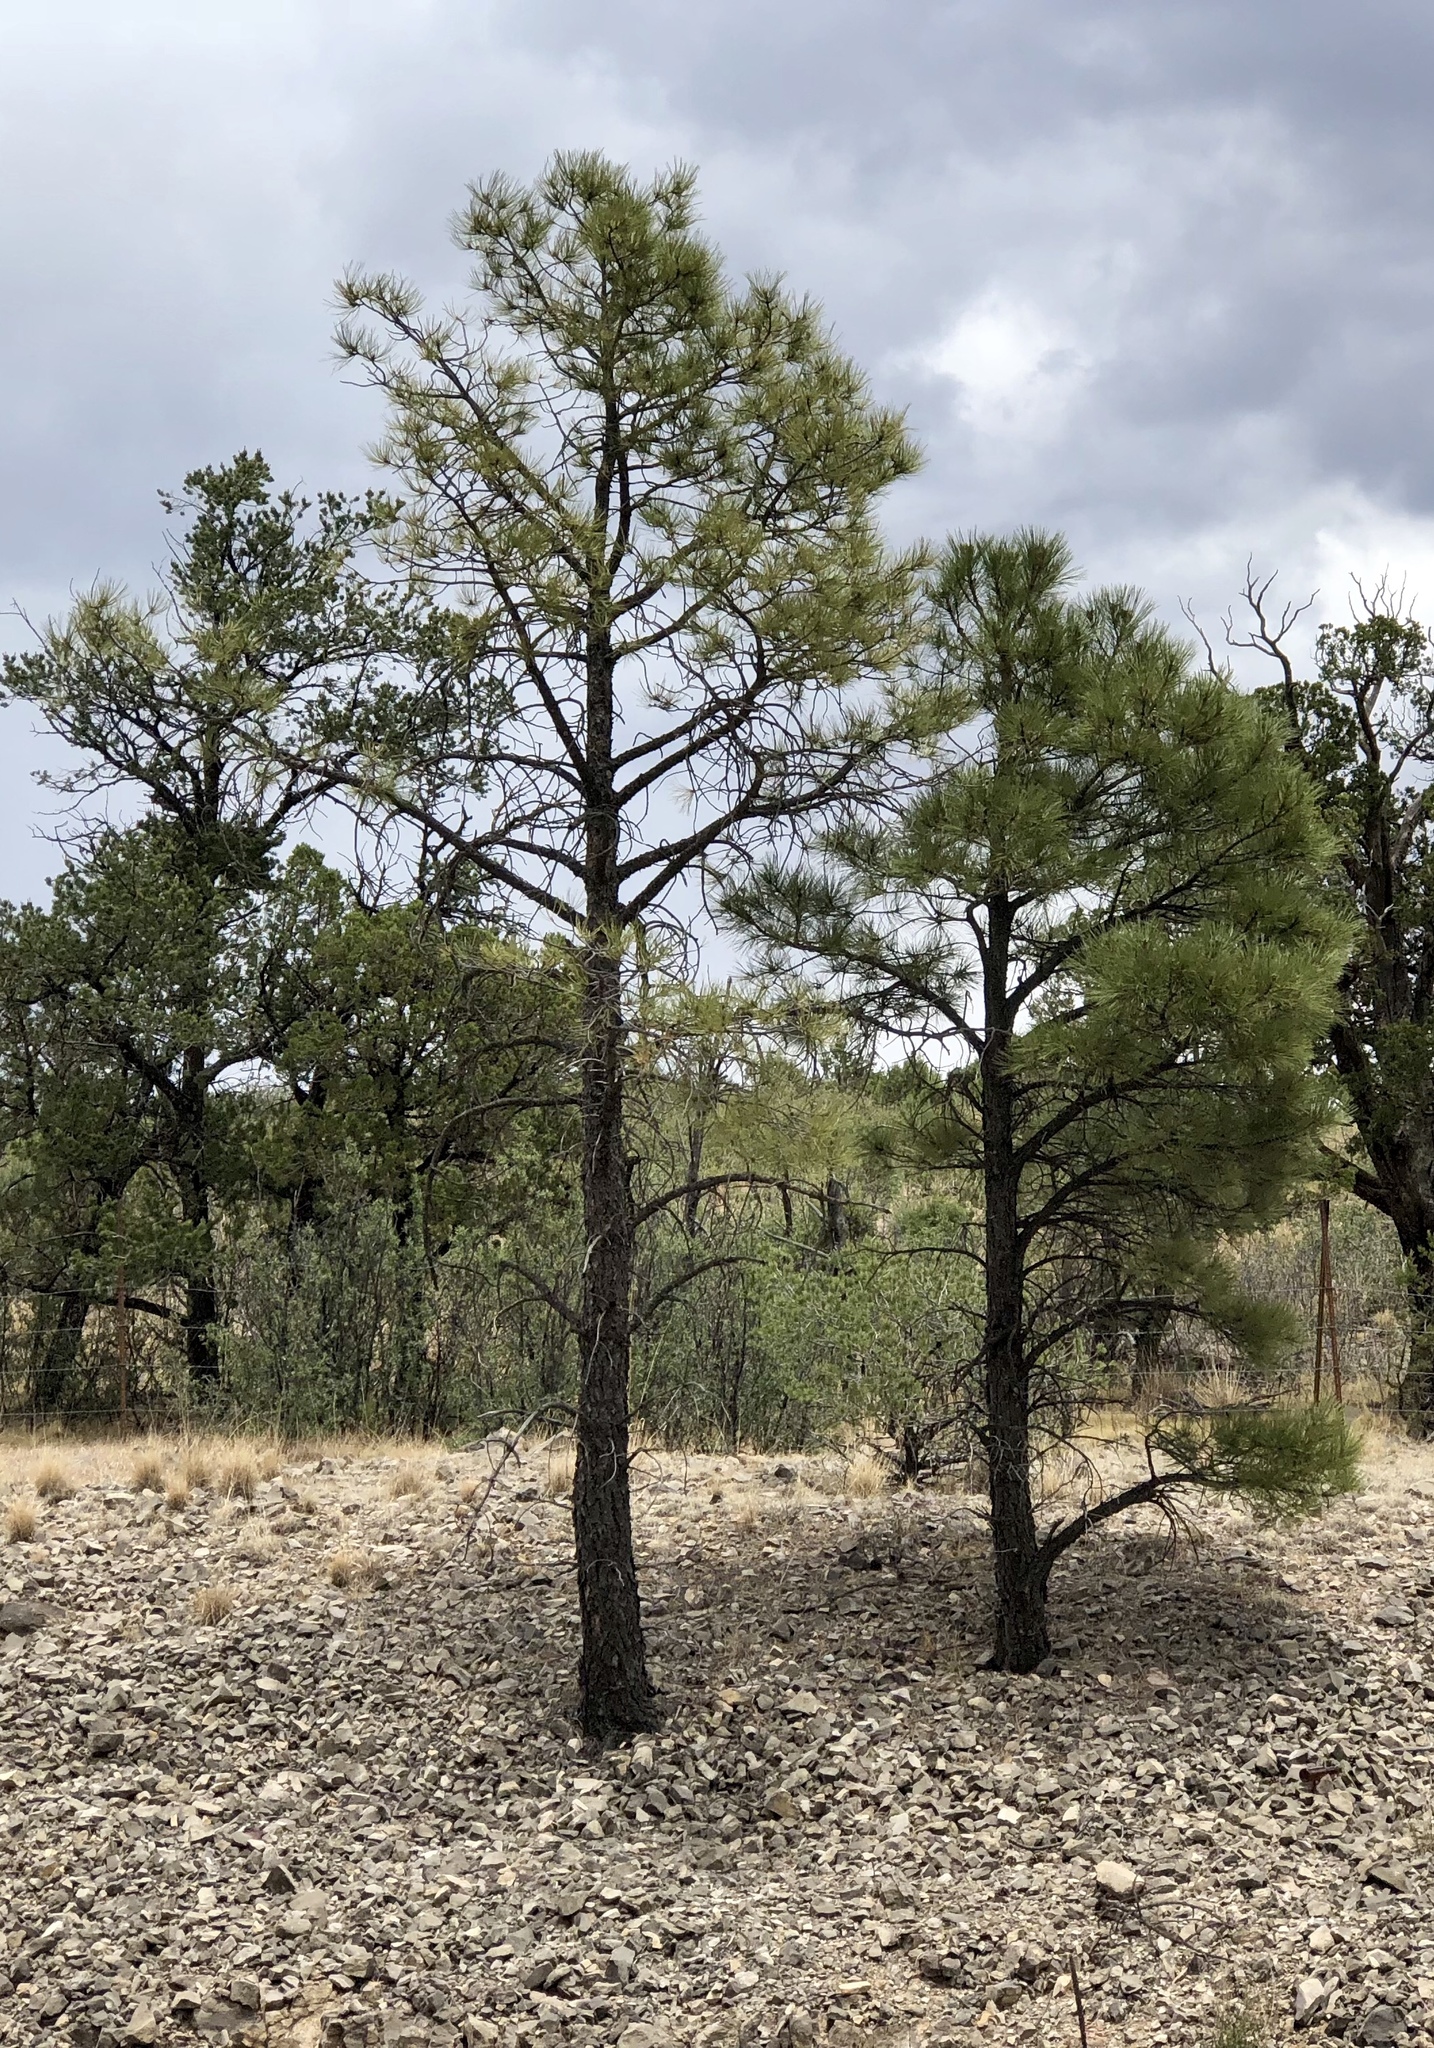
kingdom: Plantae
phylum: Tracheophyta
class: Pinopsida
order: Pinales
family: Pinaceae
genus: Pinus
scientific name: Pinus ponderosa
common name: Western yellow-pine
